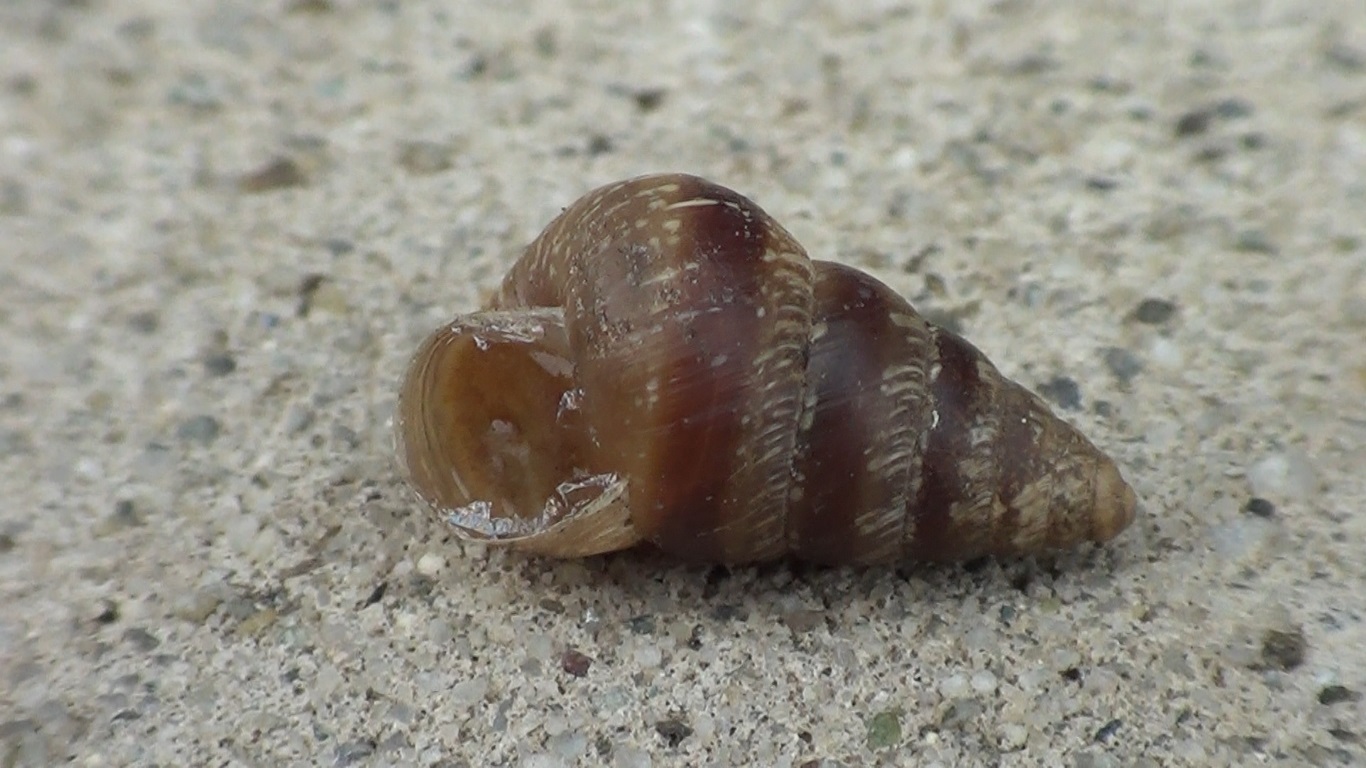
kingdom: Animalia
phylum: Mollusca
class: Gastropoda
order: Stylommatophora
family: Geomitridae
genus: Cochlicella
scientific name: Cochlicella barbara
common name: Potbellied helicellid
